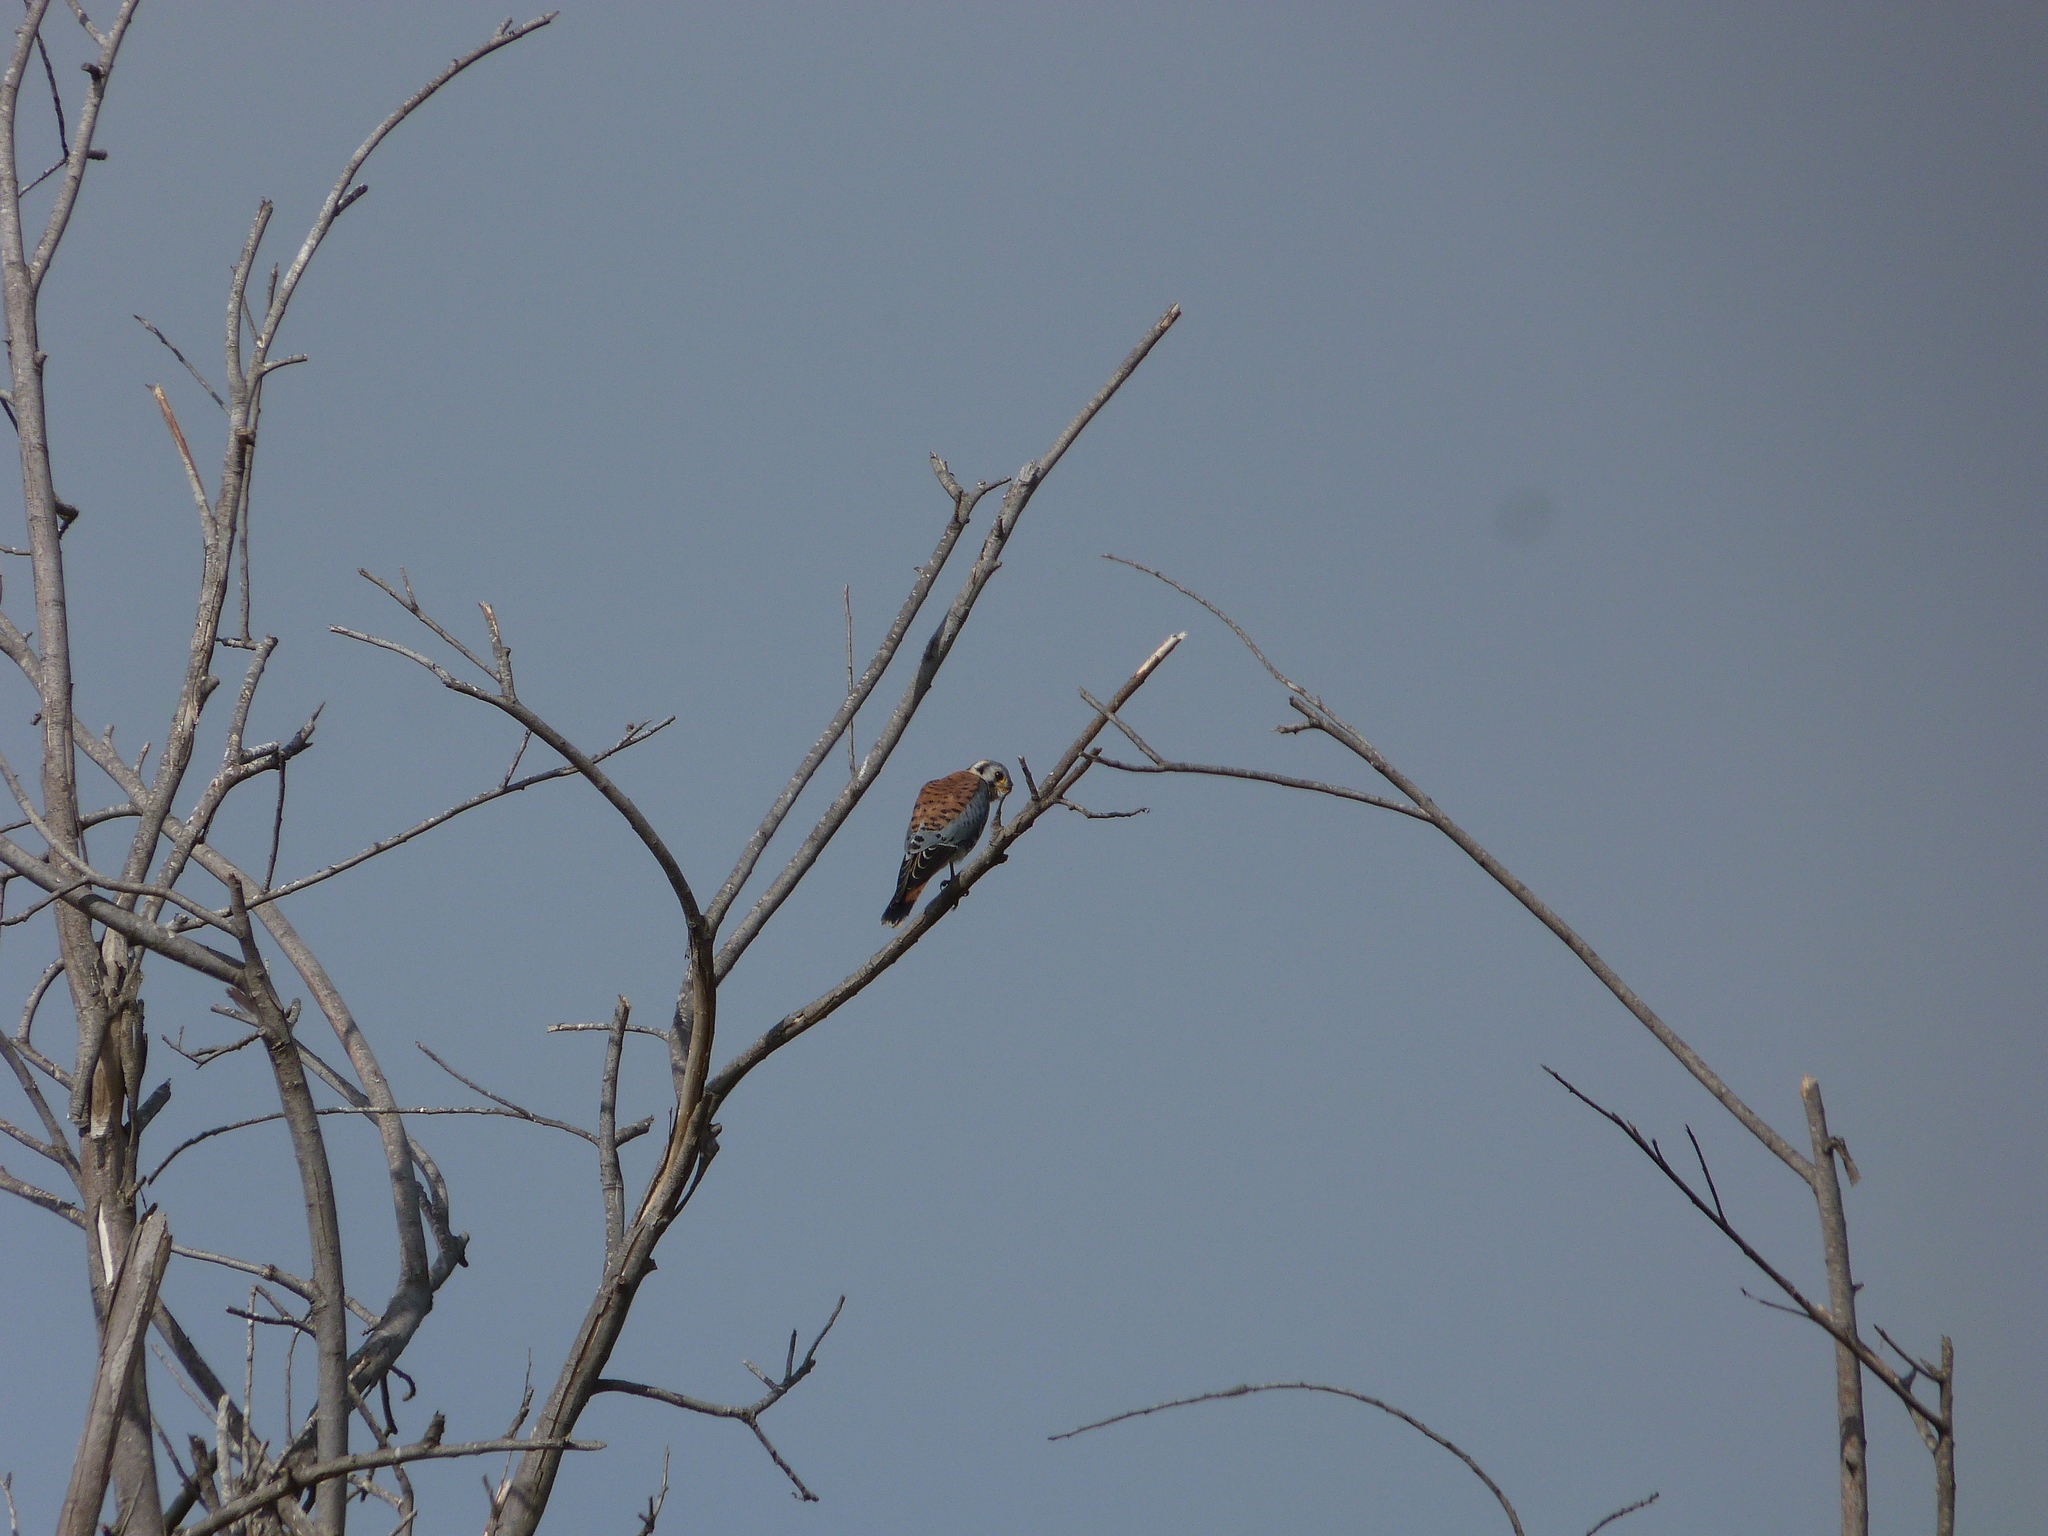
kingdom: Animalia
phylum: Chordata
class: Aves
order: Falconiformes
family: Falconidae
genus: Falco
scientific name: Falco sparverius
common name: American kestrel
